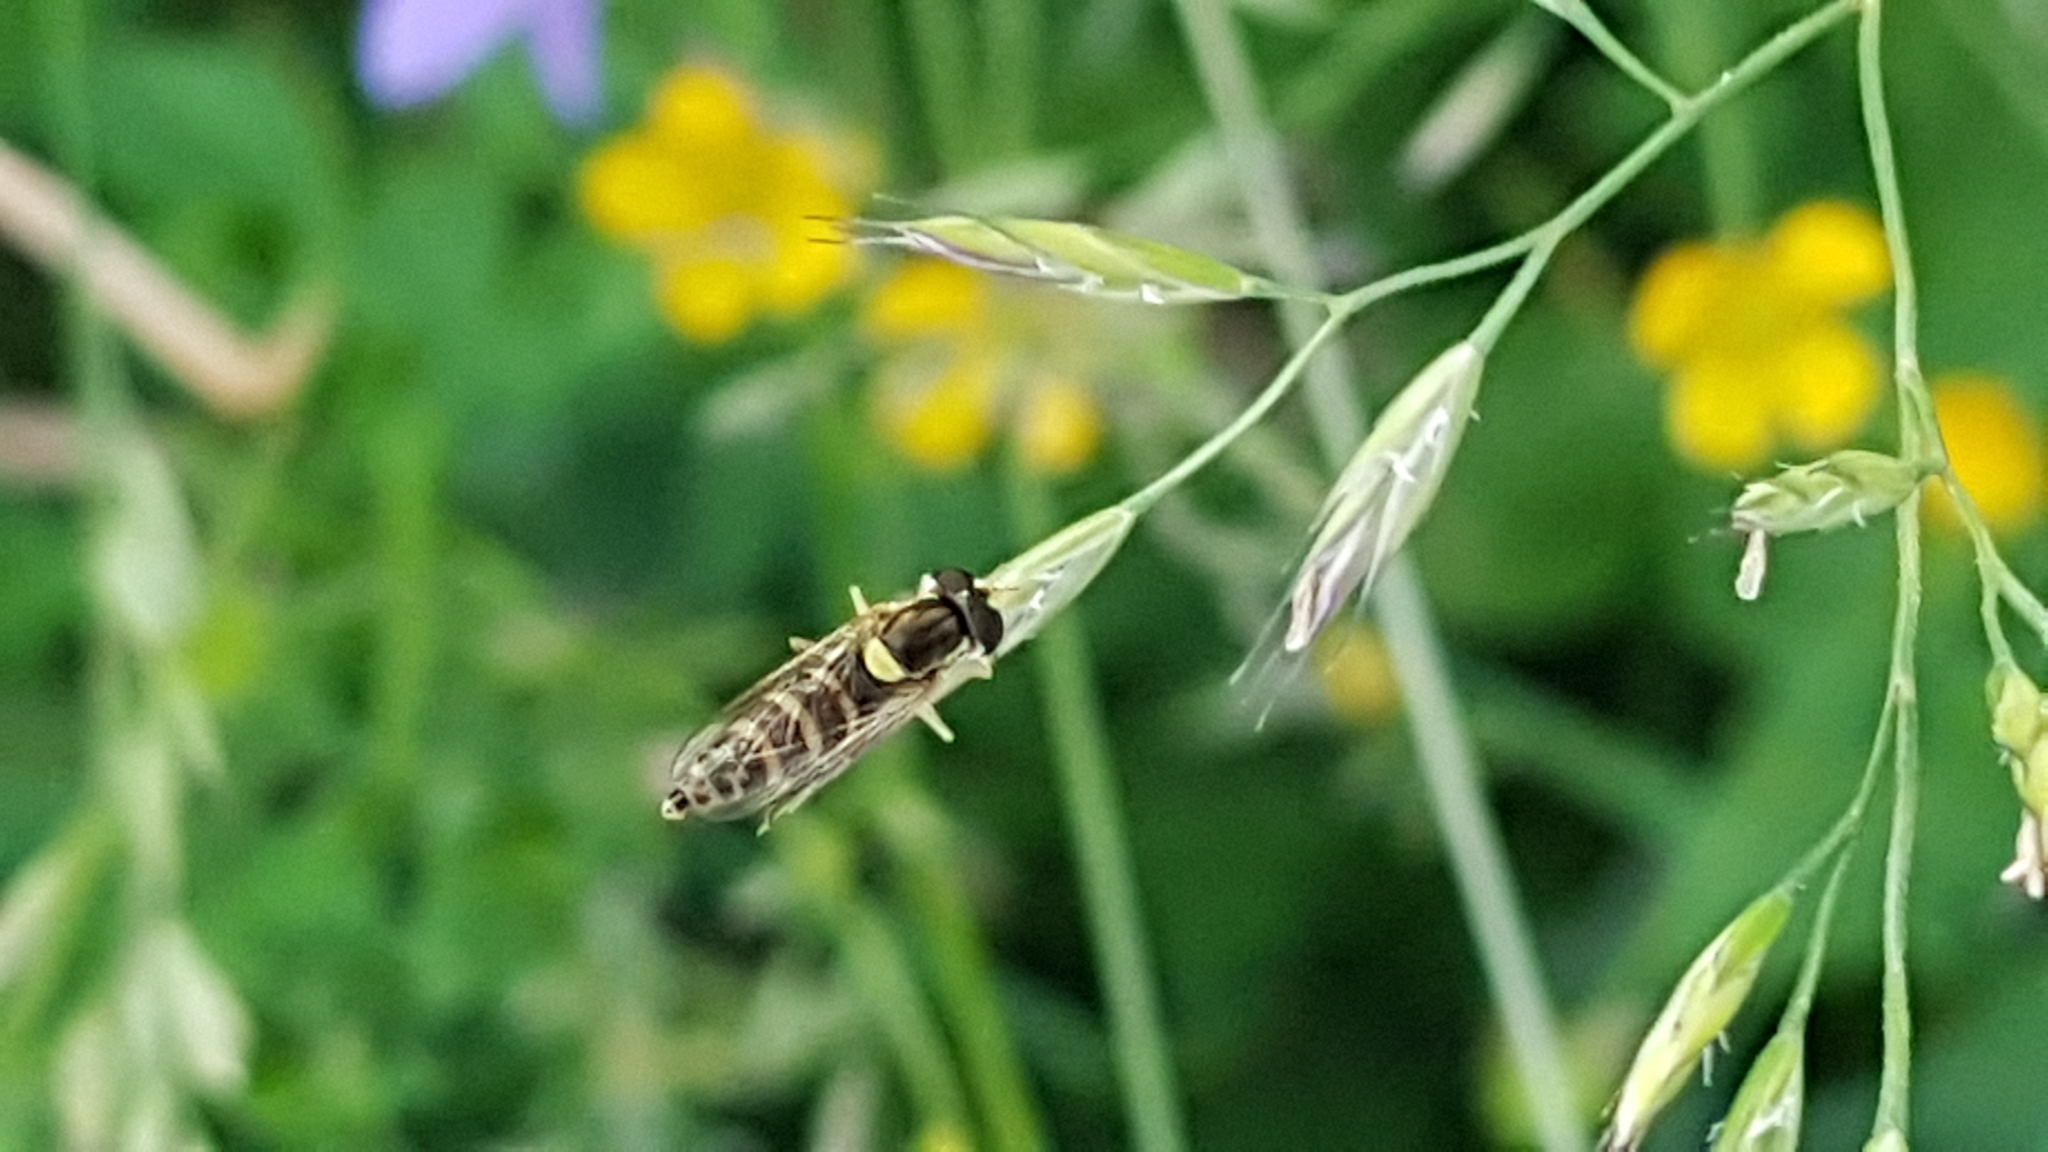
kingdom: Animalia
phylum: Arthropoda
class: Insecta
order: Diptera
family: Syrphidae
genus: Sphaerophoria
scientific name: Sphaerophoria
